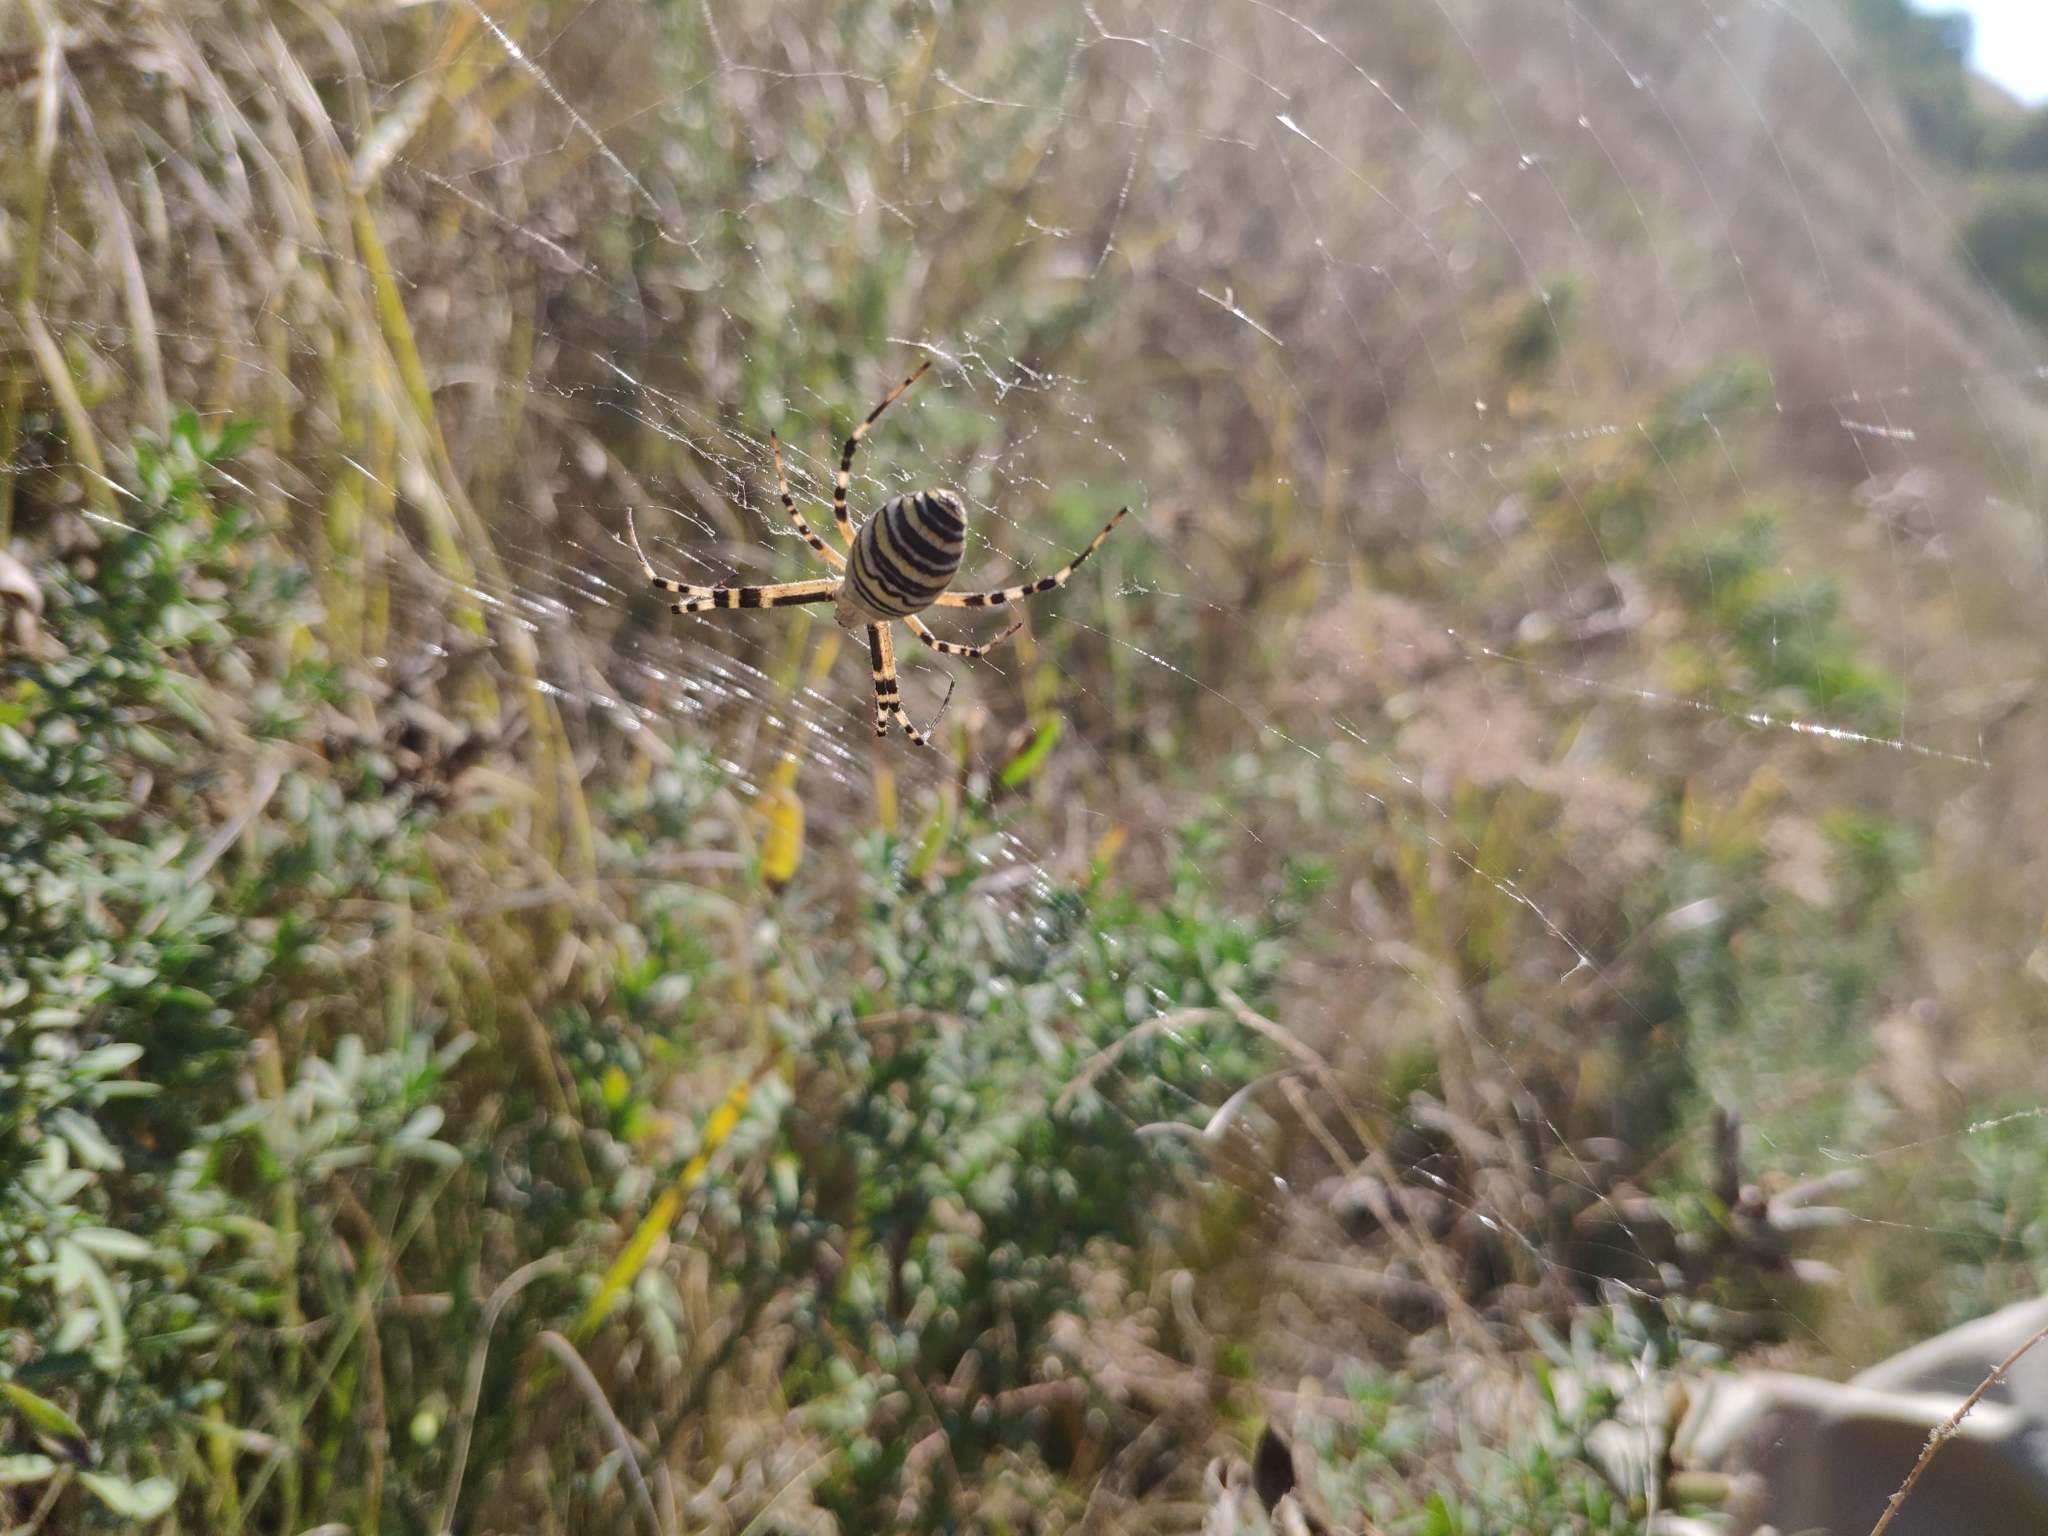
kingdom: Animalia
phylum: Arthropoda
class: Arachnida
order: Araneae
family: Araneidae
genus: Argiope
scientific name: Argiope bruennichi
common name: Wasp spider
